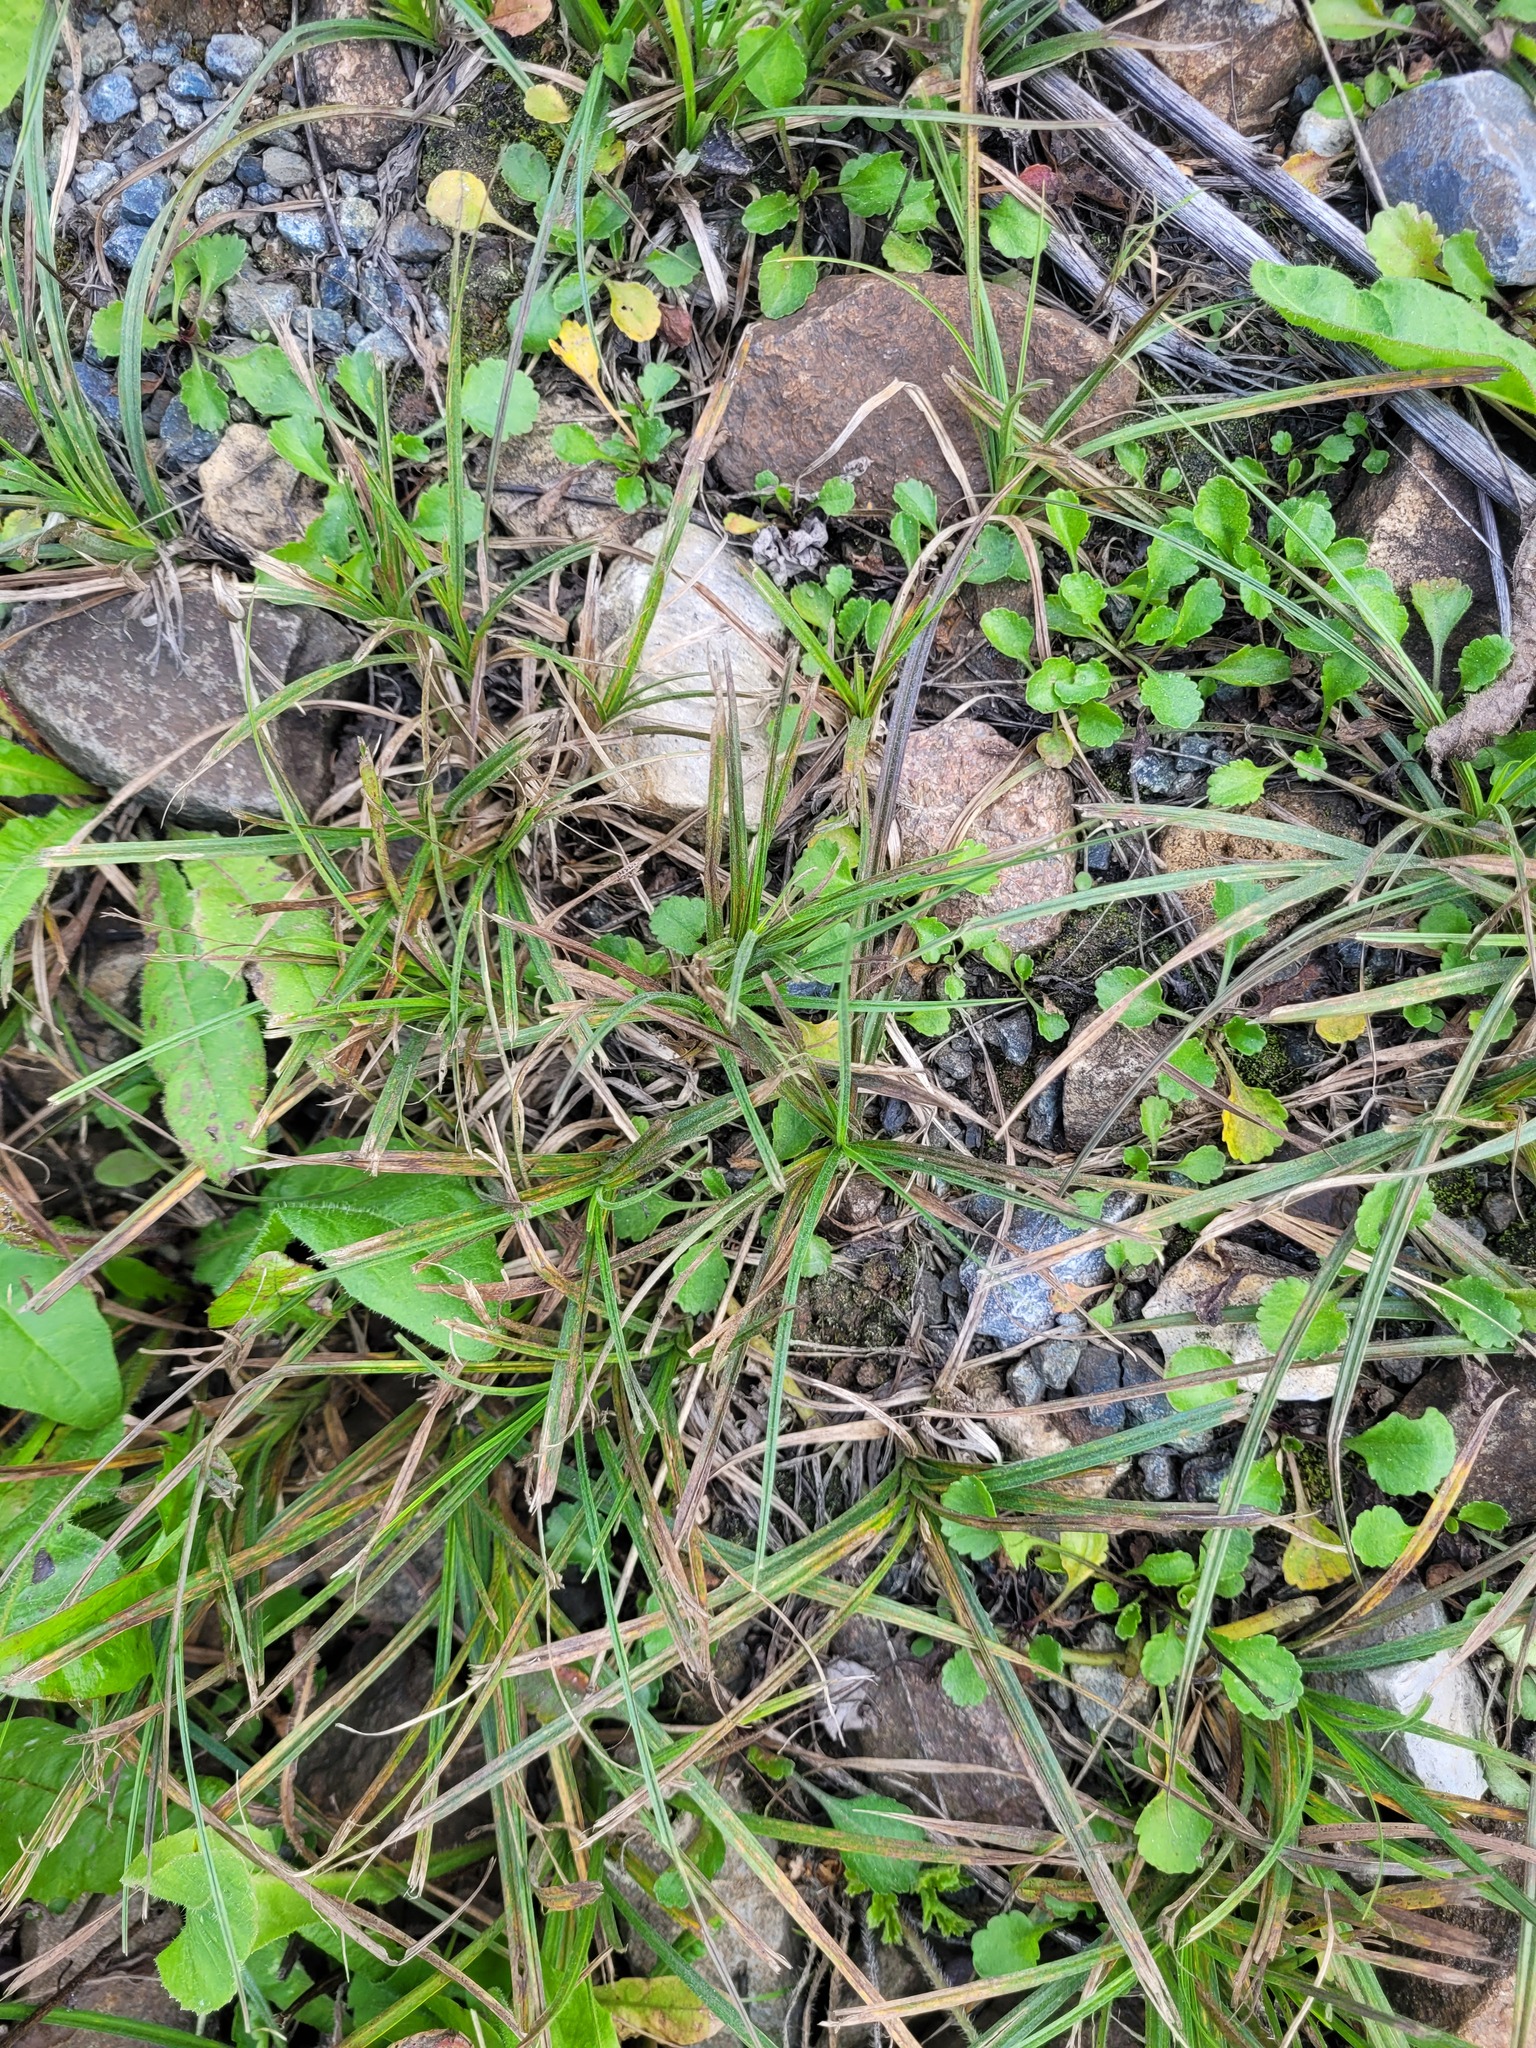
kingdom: Plantae
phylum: Tracheophyta
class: Liliopsida
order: Poales
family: Cyperaceae
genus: Carex
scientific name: Carex hirta
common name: Hairy sedge
